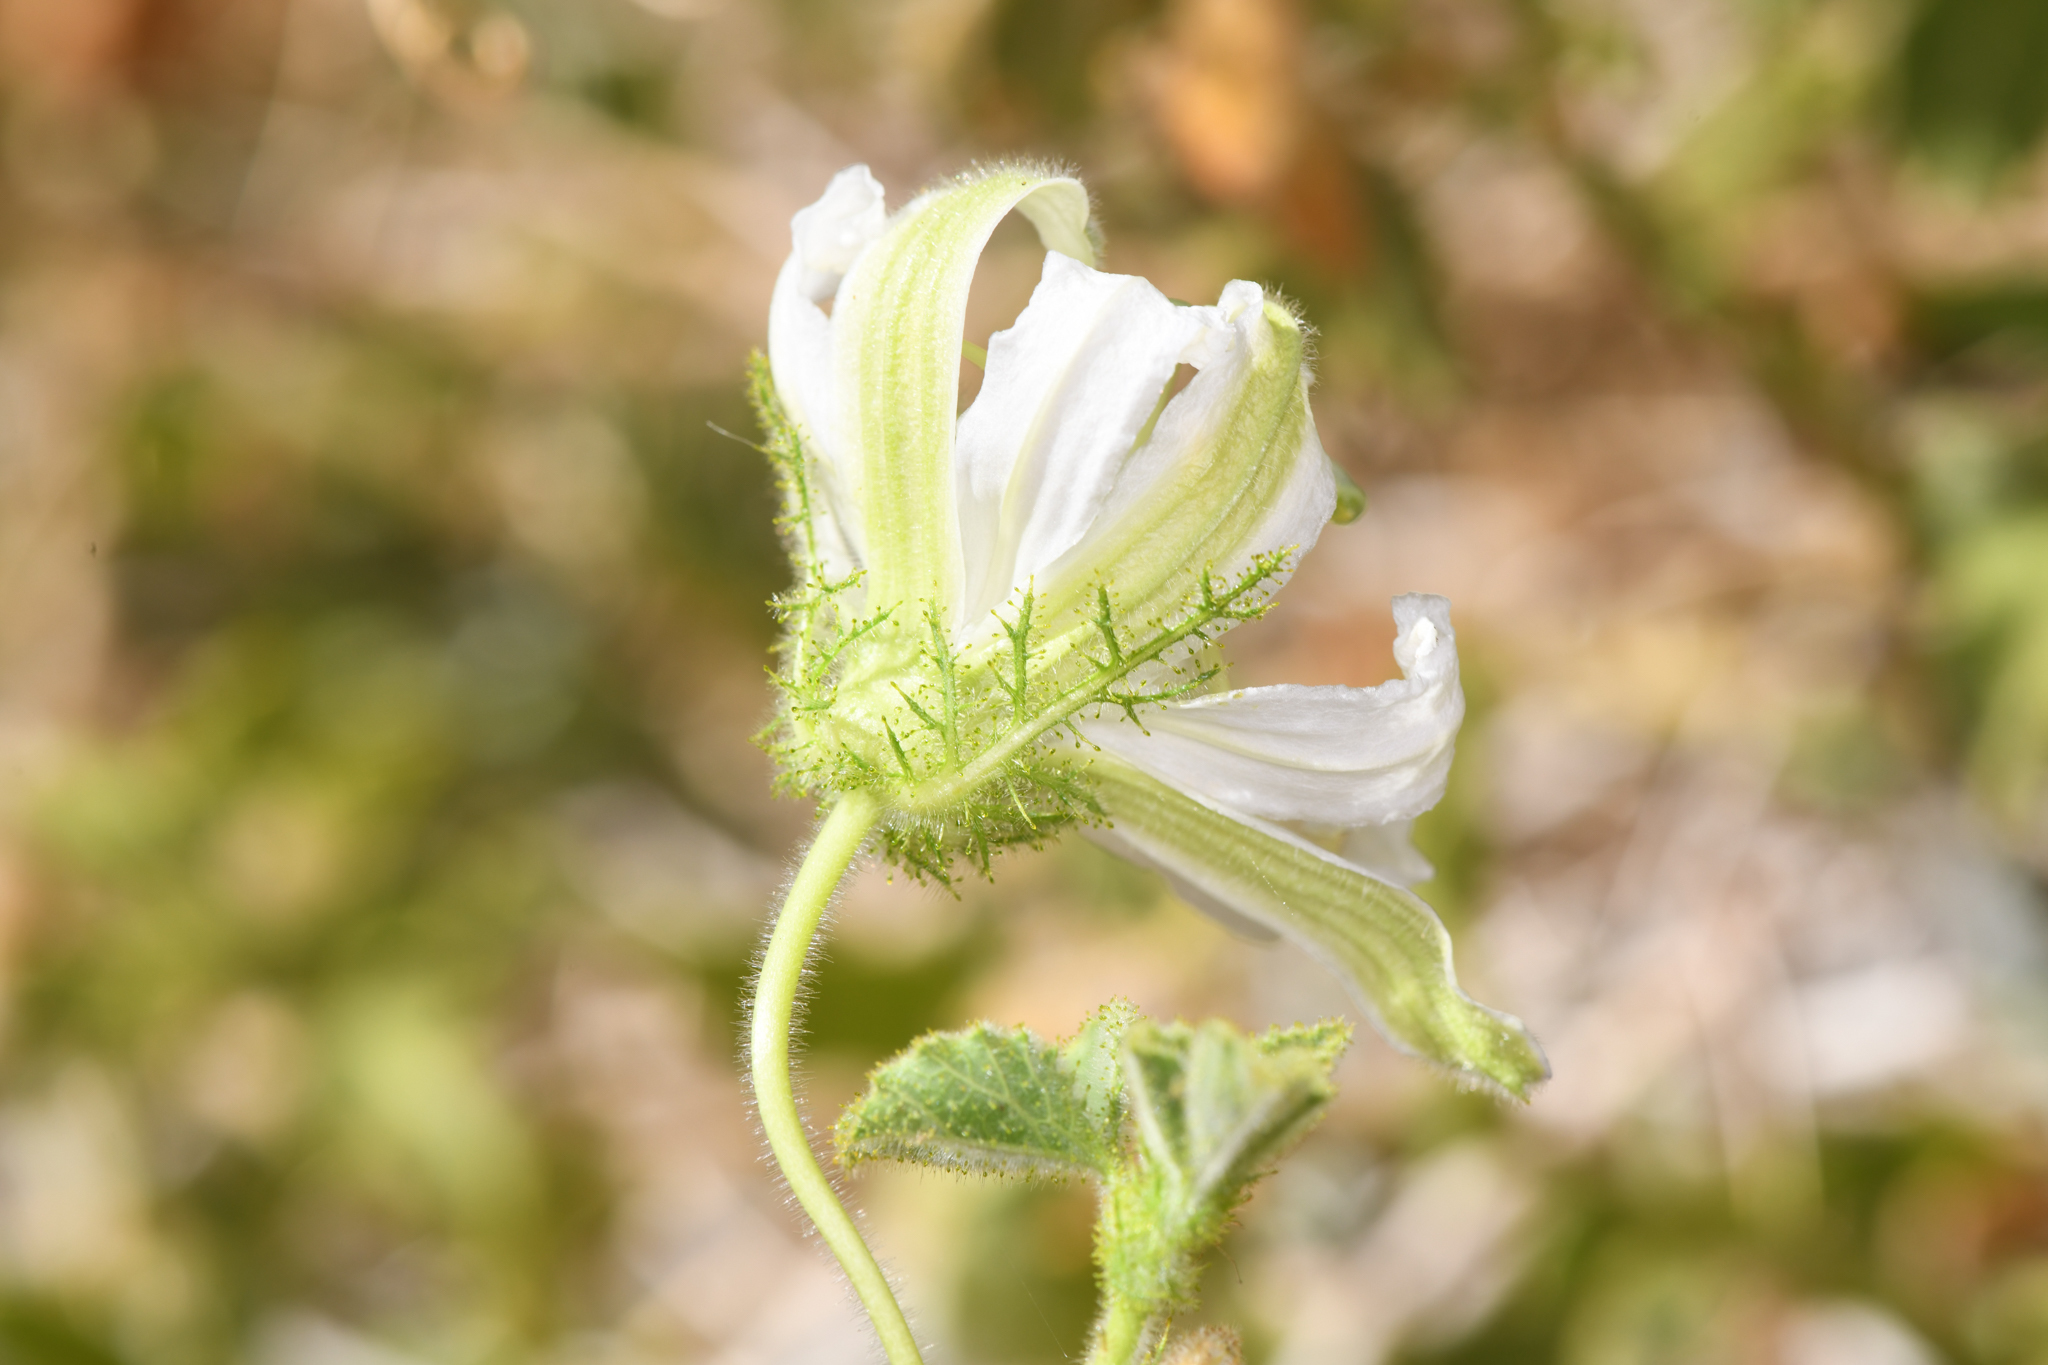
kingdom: Plantae
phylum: Tracheophyta
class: Magnoliopsida
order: Malpighiales
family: Passifloraceae
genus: Passiflora
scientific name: Passiflora palmeri
